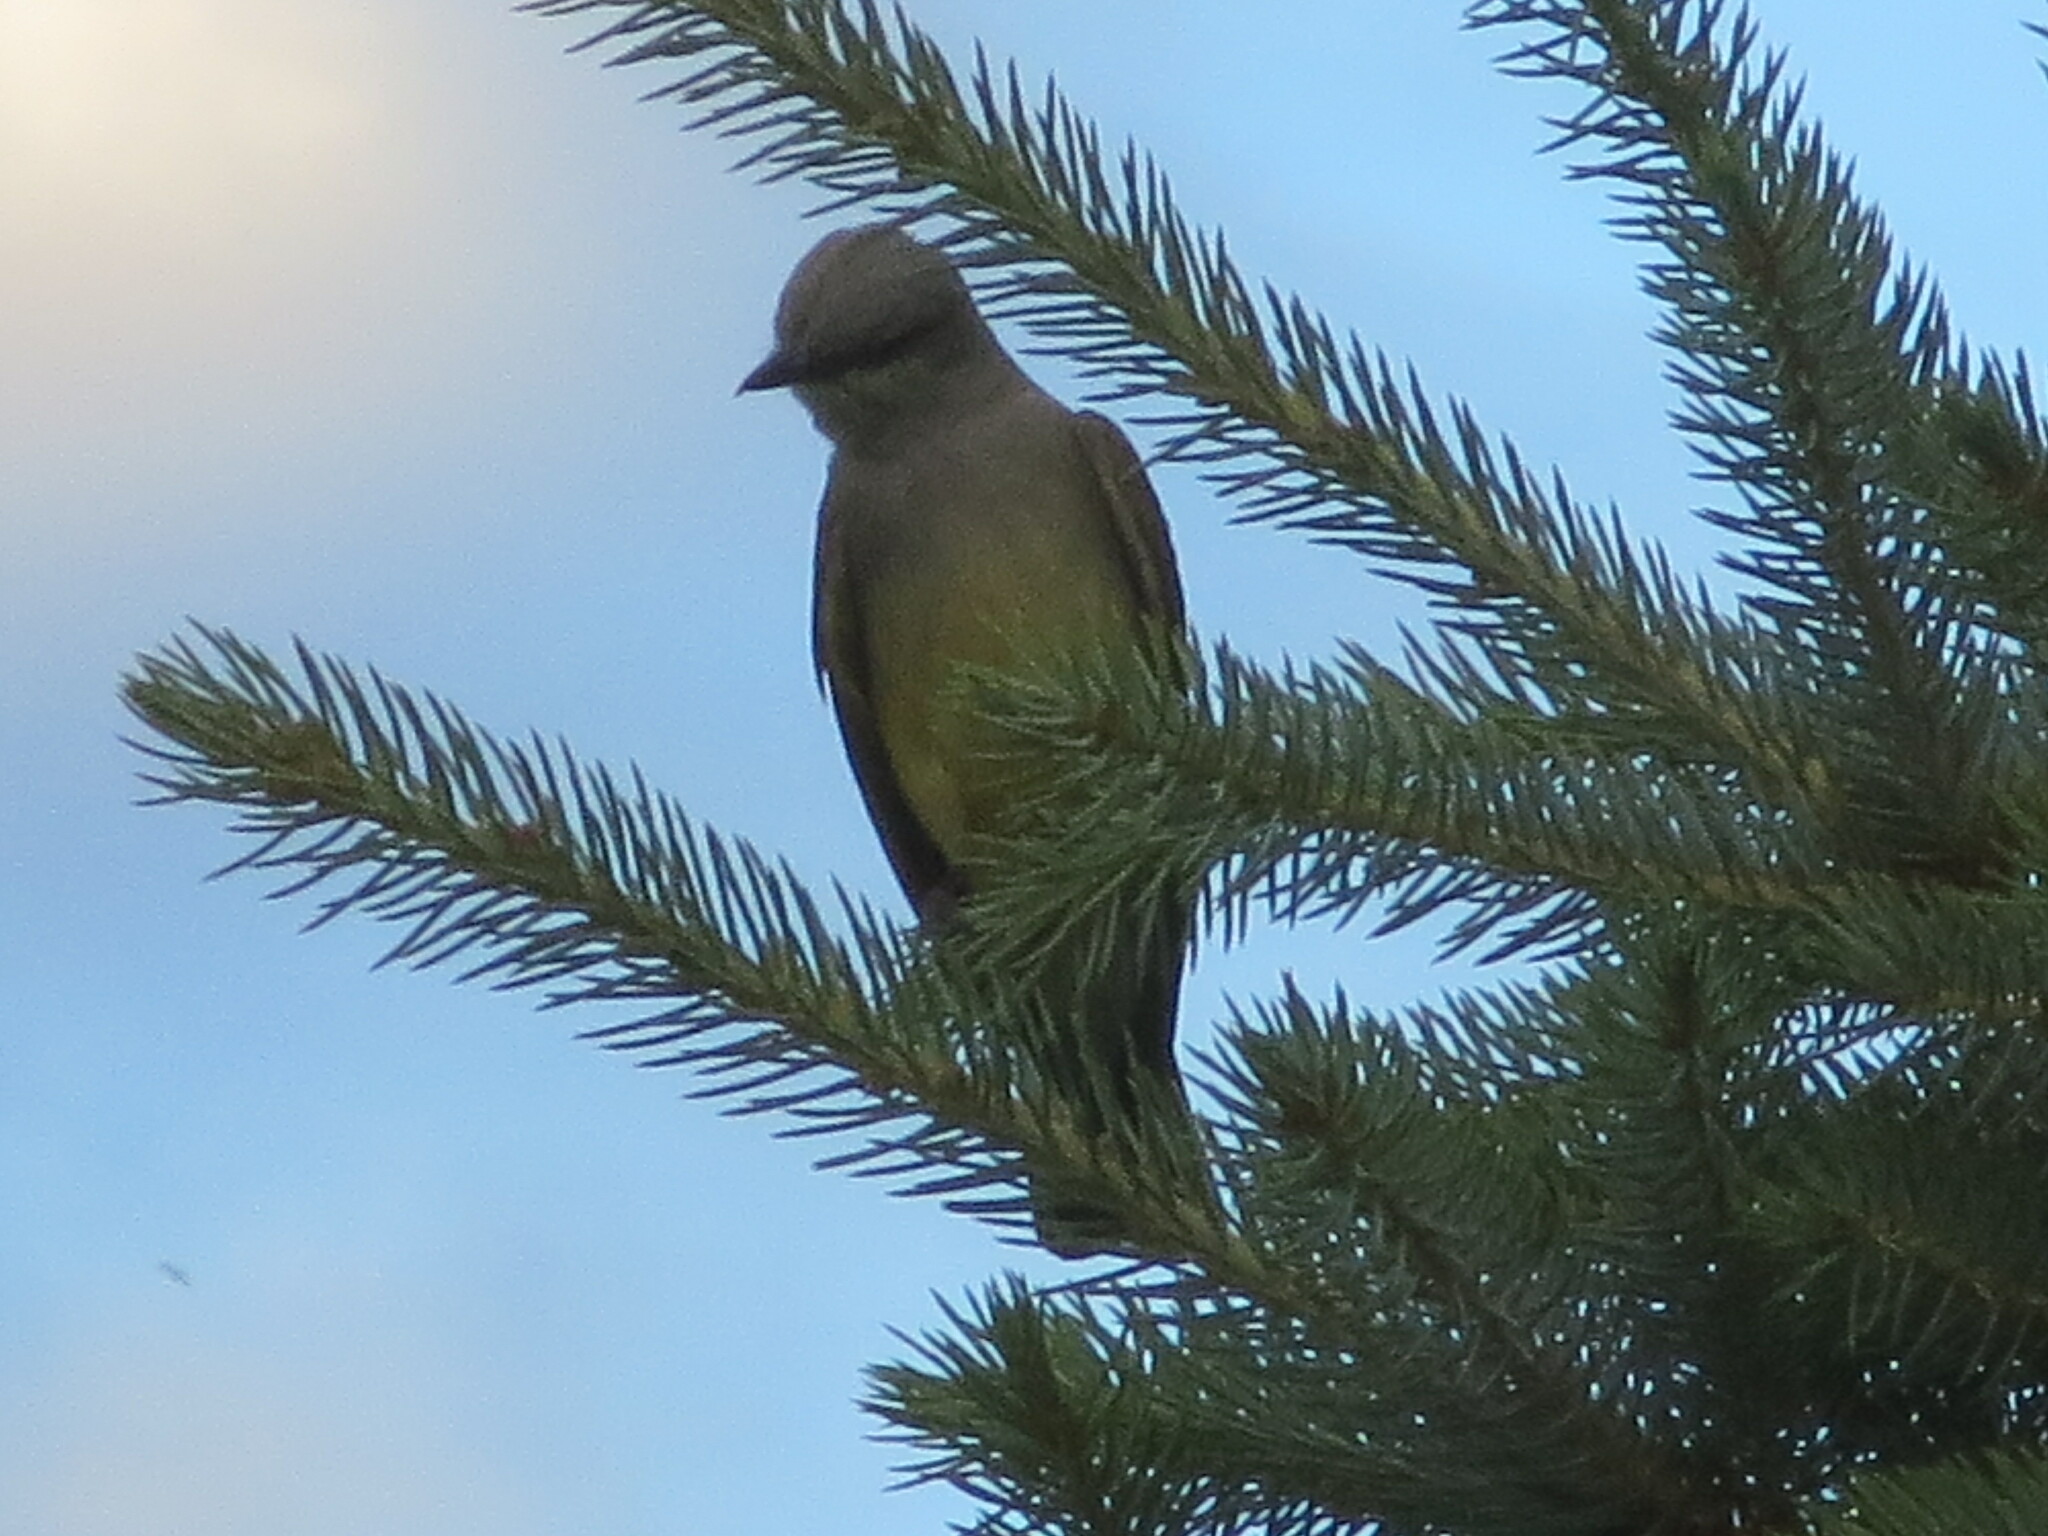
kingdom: Animalia
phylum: Chordata
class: Aves
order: Passeriformes
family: Tyrannidae
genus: Tyrannus
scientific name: Tyrannus verticalis
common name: Western kingbird
